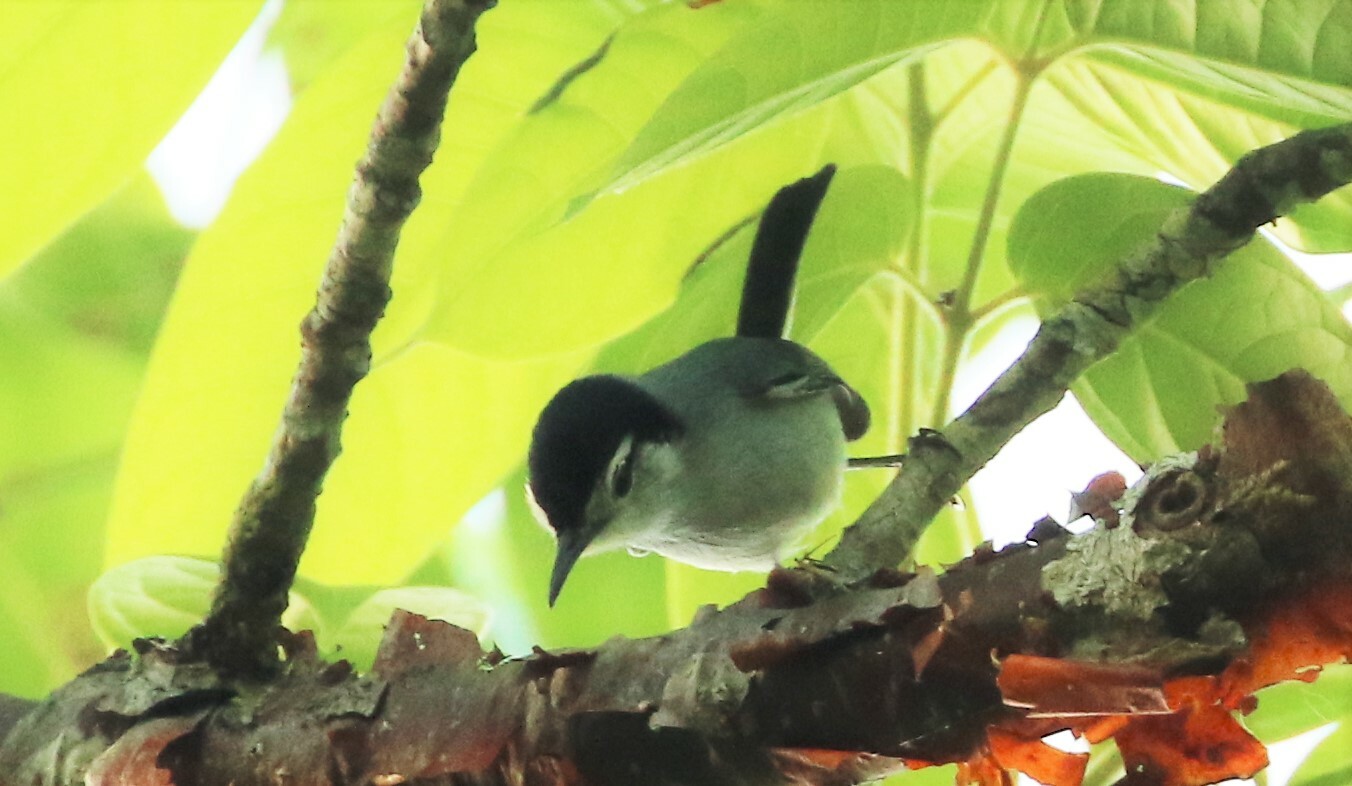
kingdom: Animalia
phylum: Chordata
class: Aves
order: Passeriformes
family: Polioptilidae
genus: Polioptila
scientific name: Polioptila plumbea
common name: Tropical gnatcatcher
